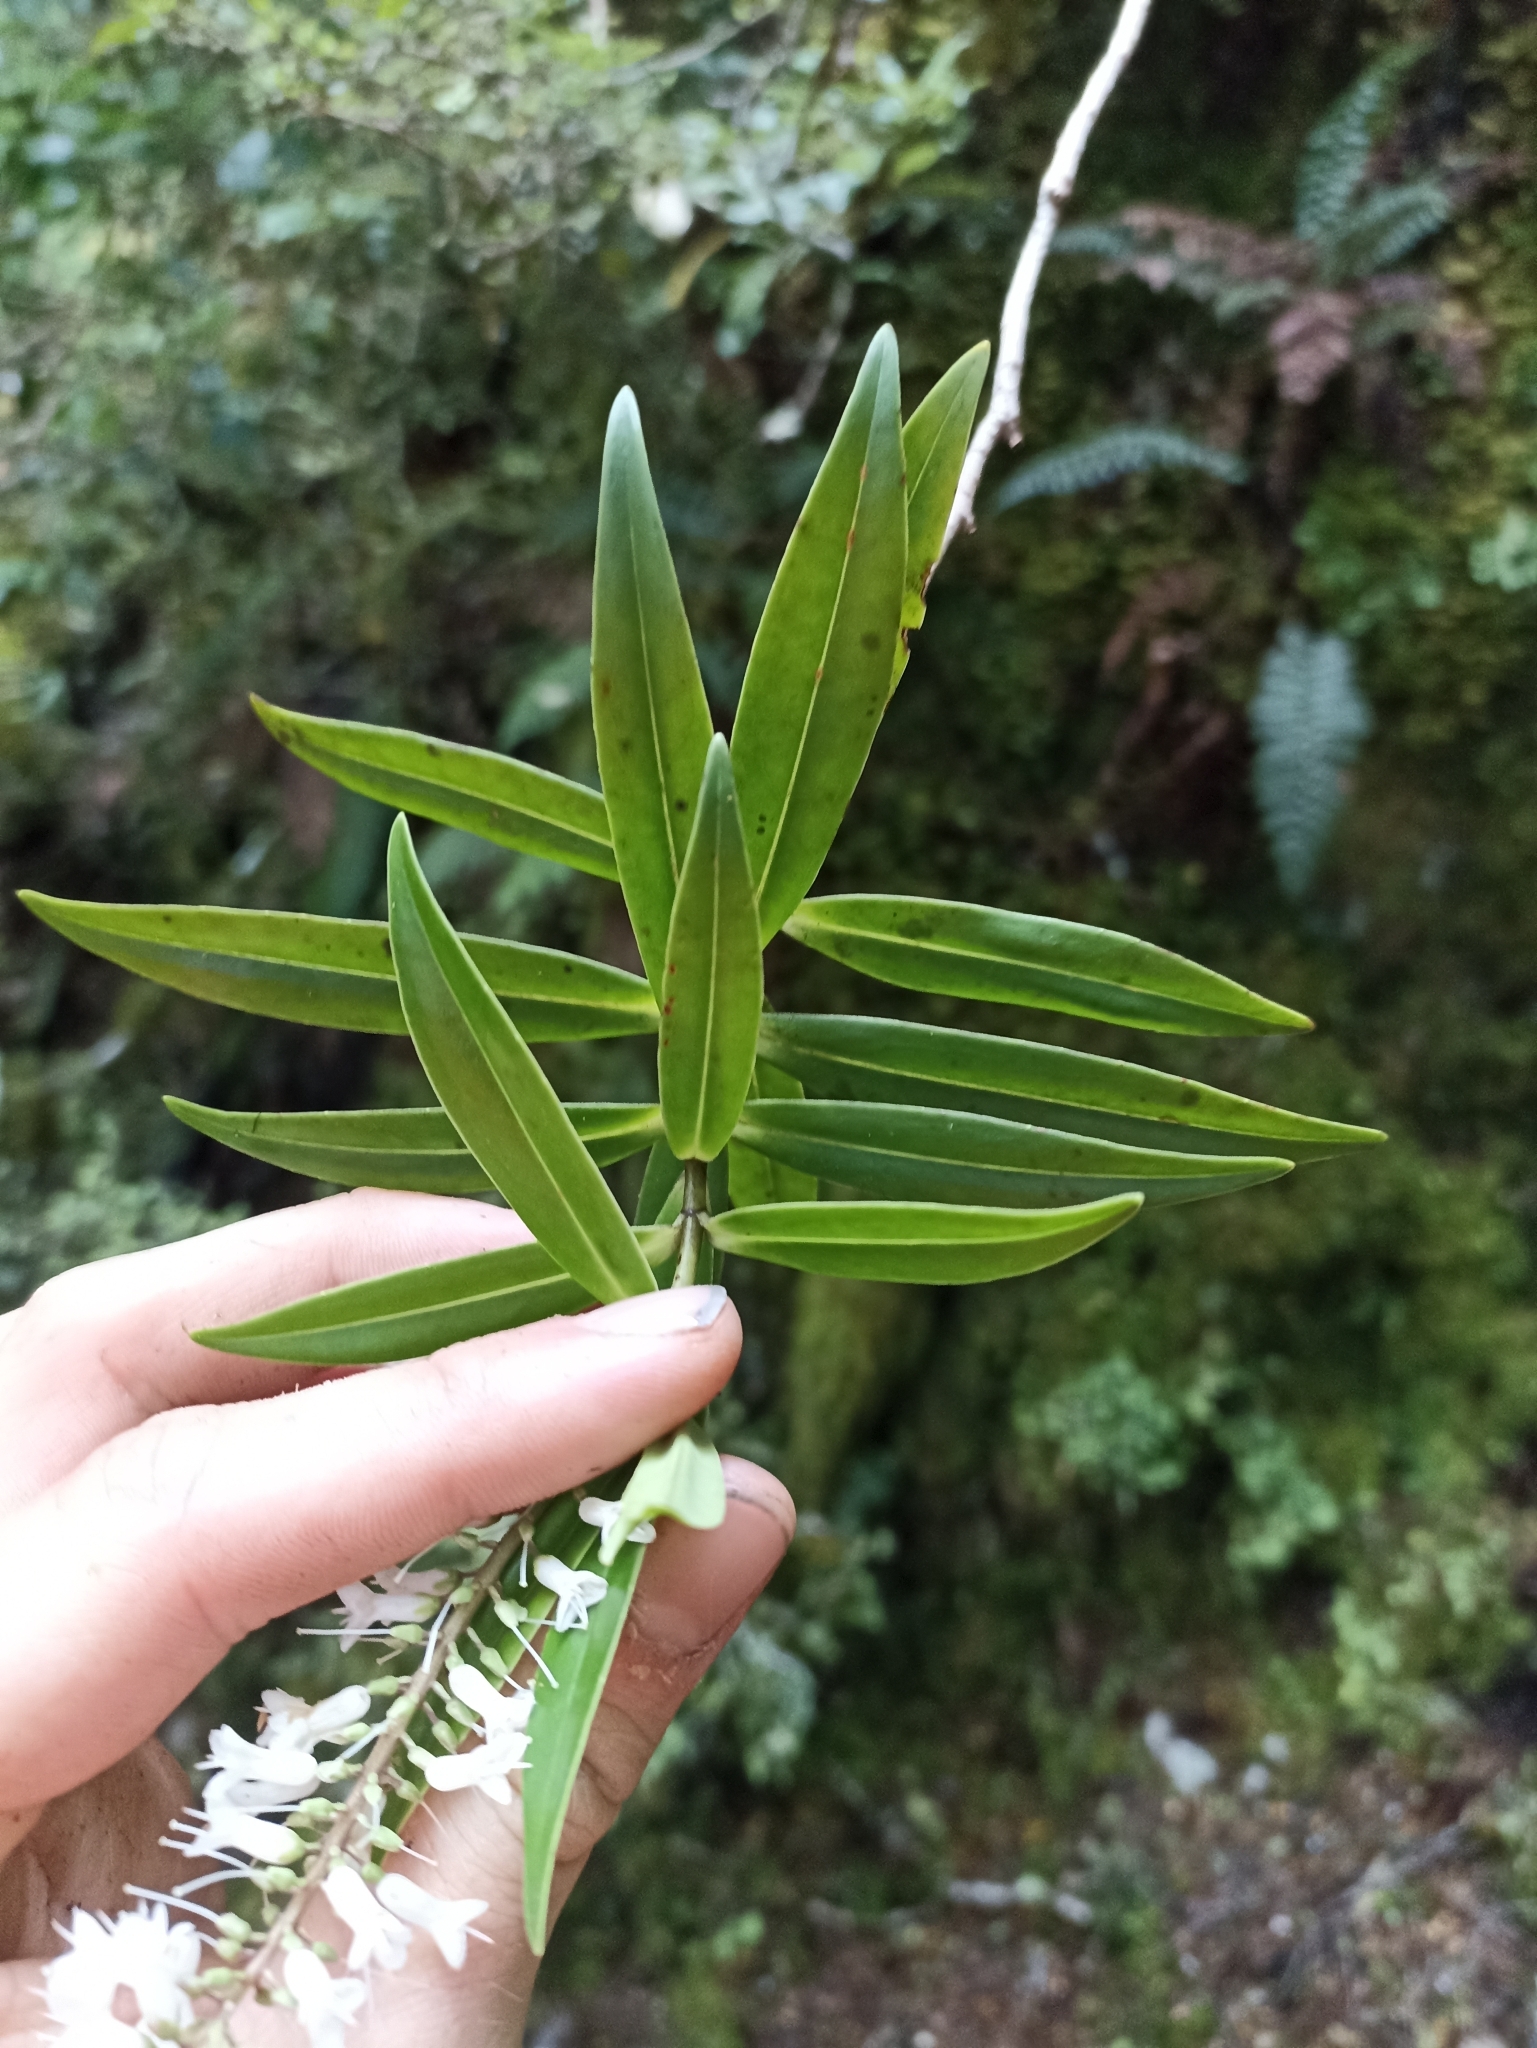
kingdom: Plantae
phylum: Tracheophyta
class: Magnoliopsida
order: Lamiales
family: Plantaginaceae
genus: Veronica
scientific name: Veronica corriganii
